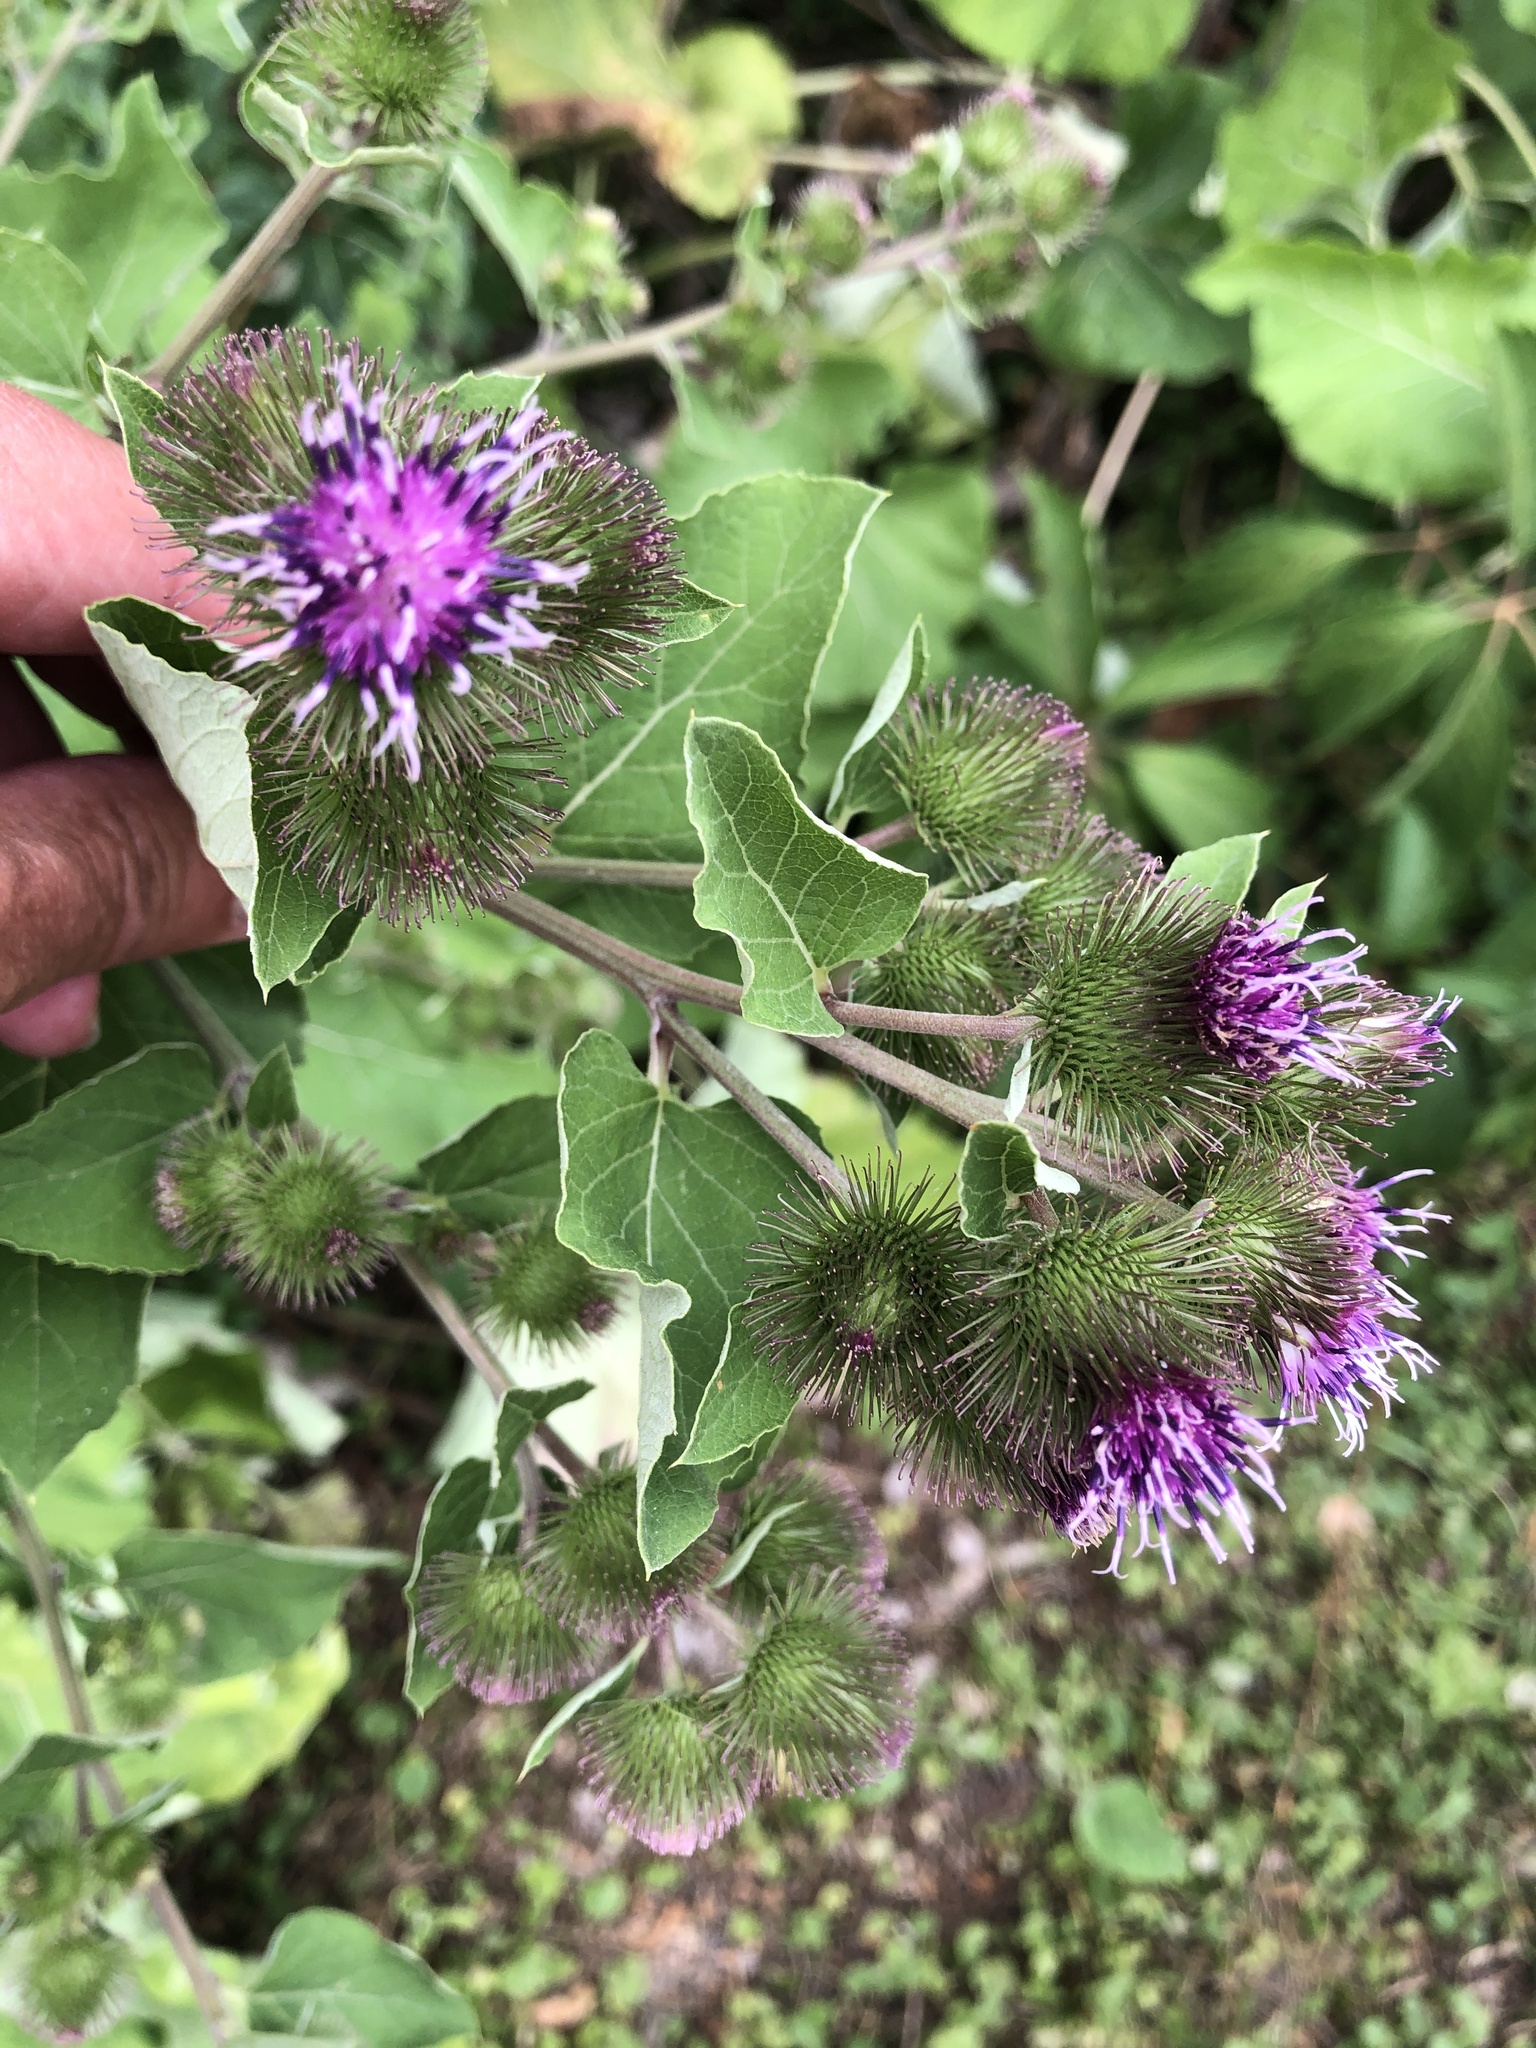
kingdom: Plantae
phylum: Tracheophyta
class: Magnoliopsida
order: Asterales
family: Asteraceae
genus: Arctium
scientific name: Arctium minus
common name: Lesser burdock
